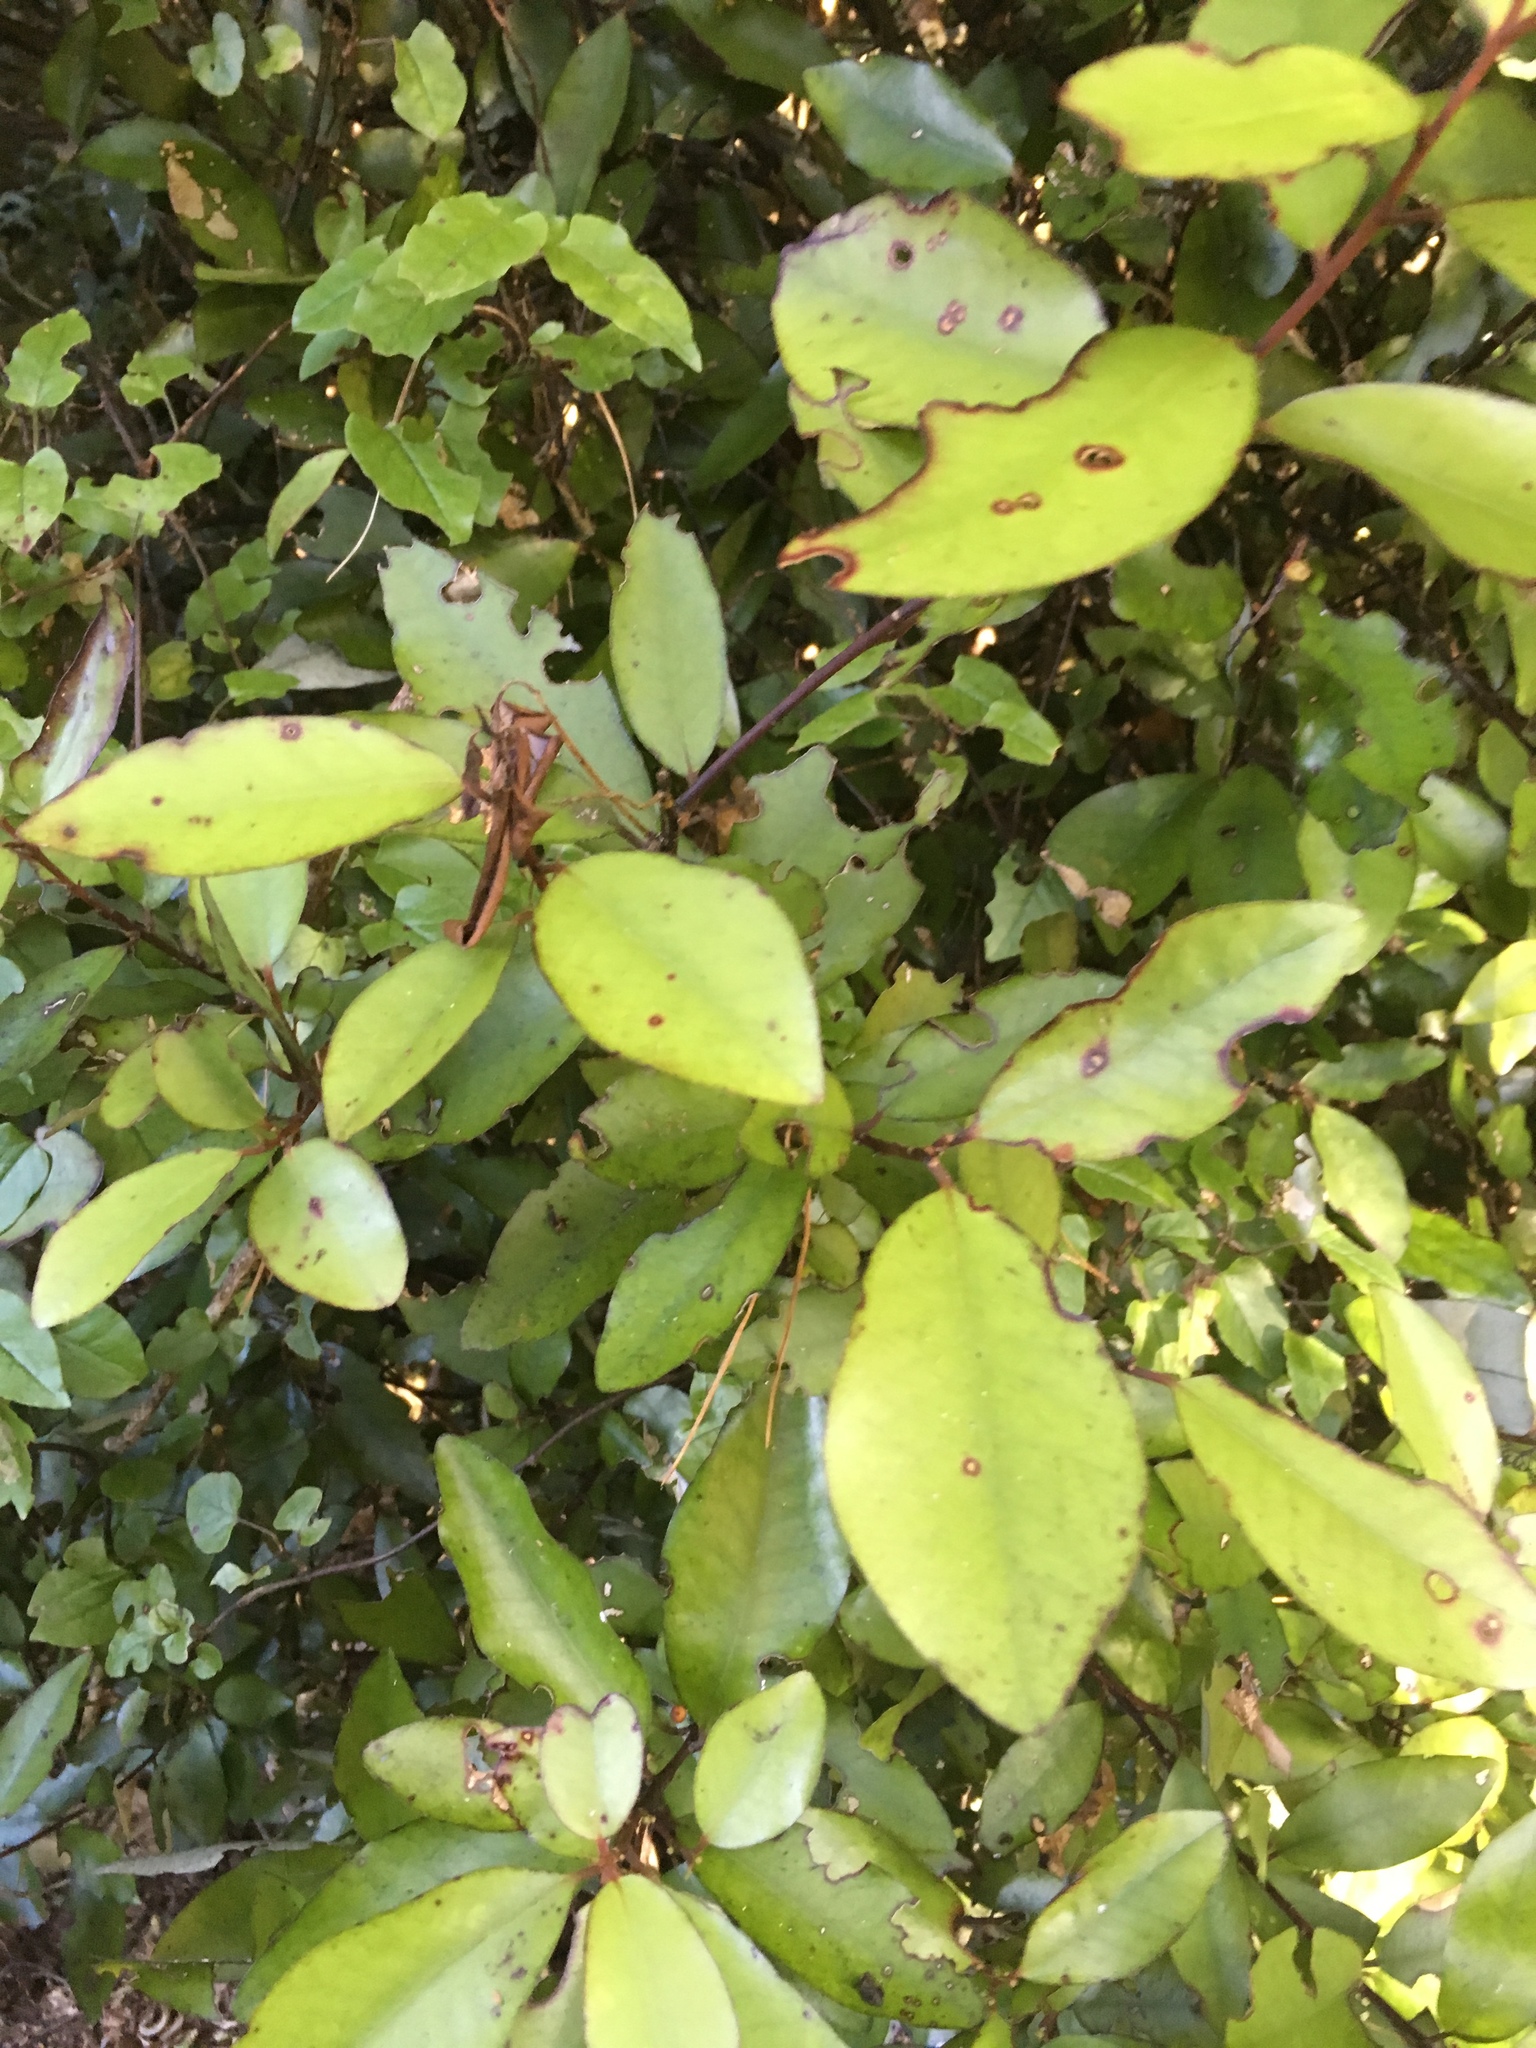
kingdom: Plantae
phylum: Tracheophyta
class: Magnoliopsida
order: Canellales
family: Winteraceae
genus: Pseudowintera
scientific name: Pseudowintera colorata
